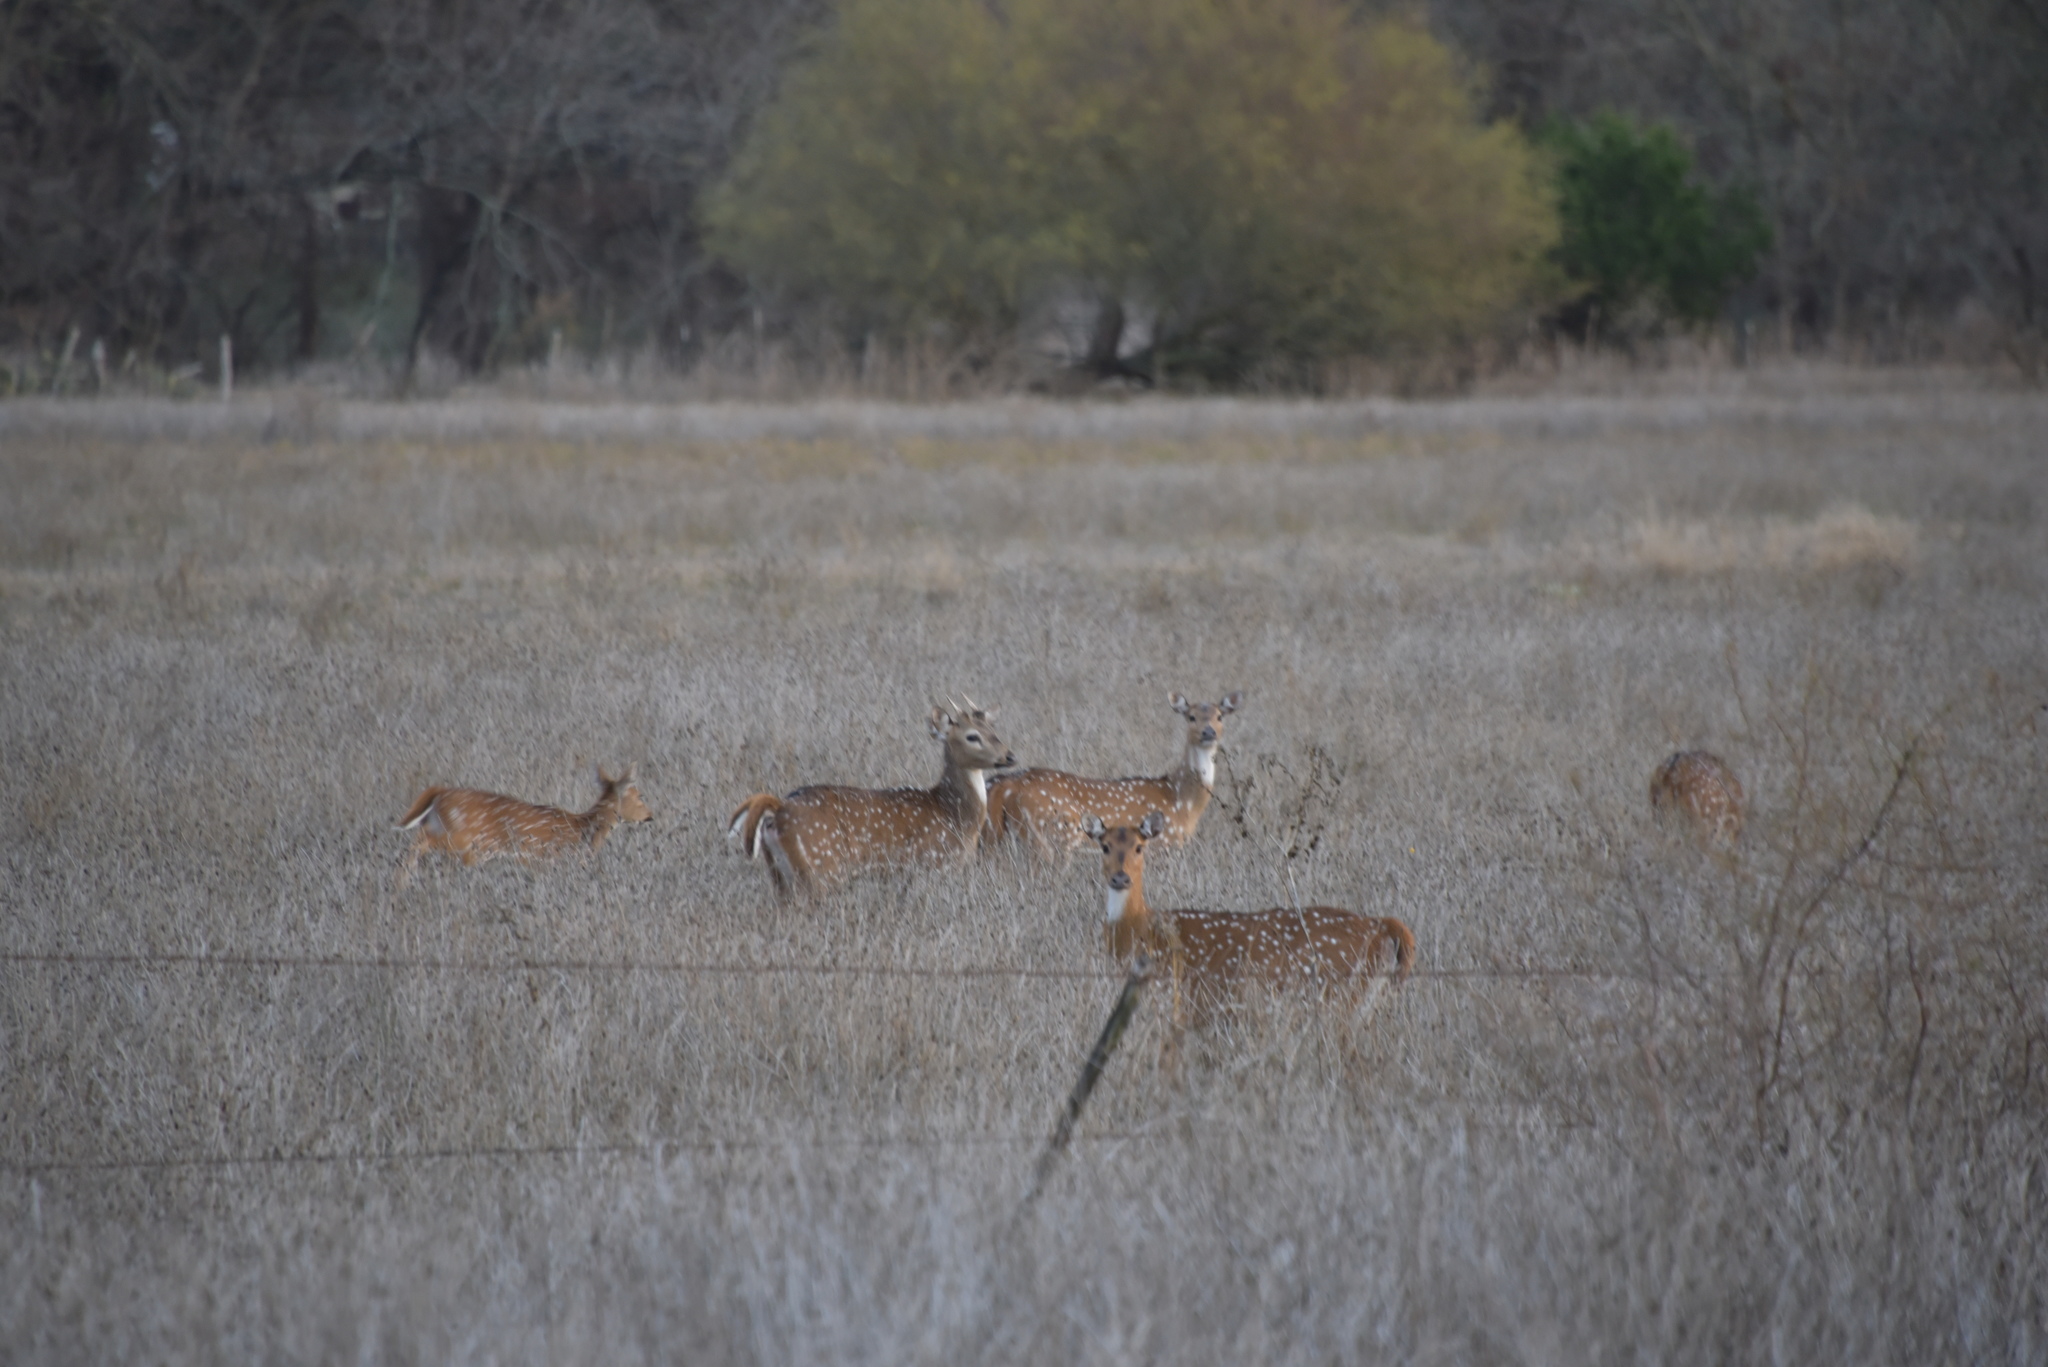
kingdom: Animalia
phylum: Chordata
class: Mammalia
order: Artiodactyla
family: Cervidae
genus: Axis
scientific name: Axis axis
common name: Chital
